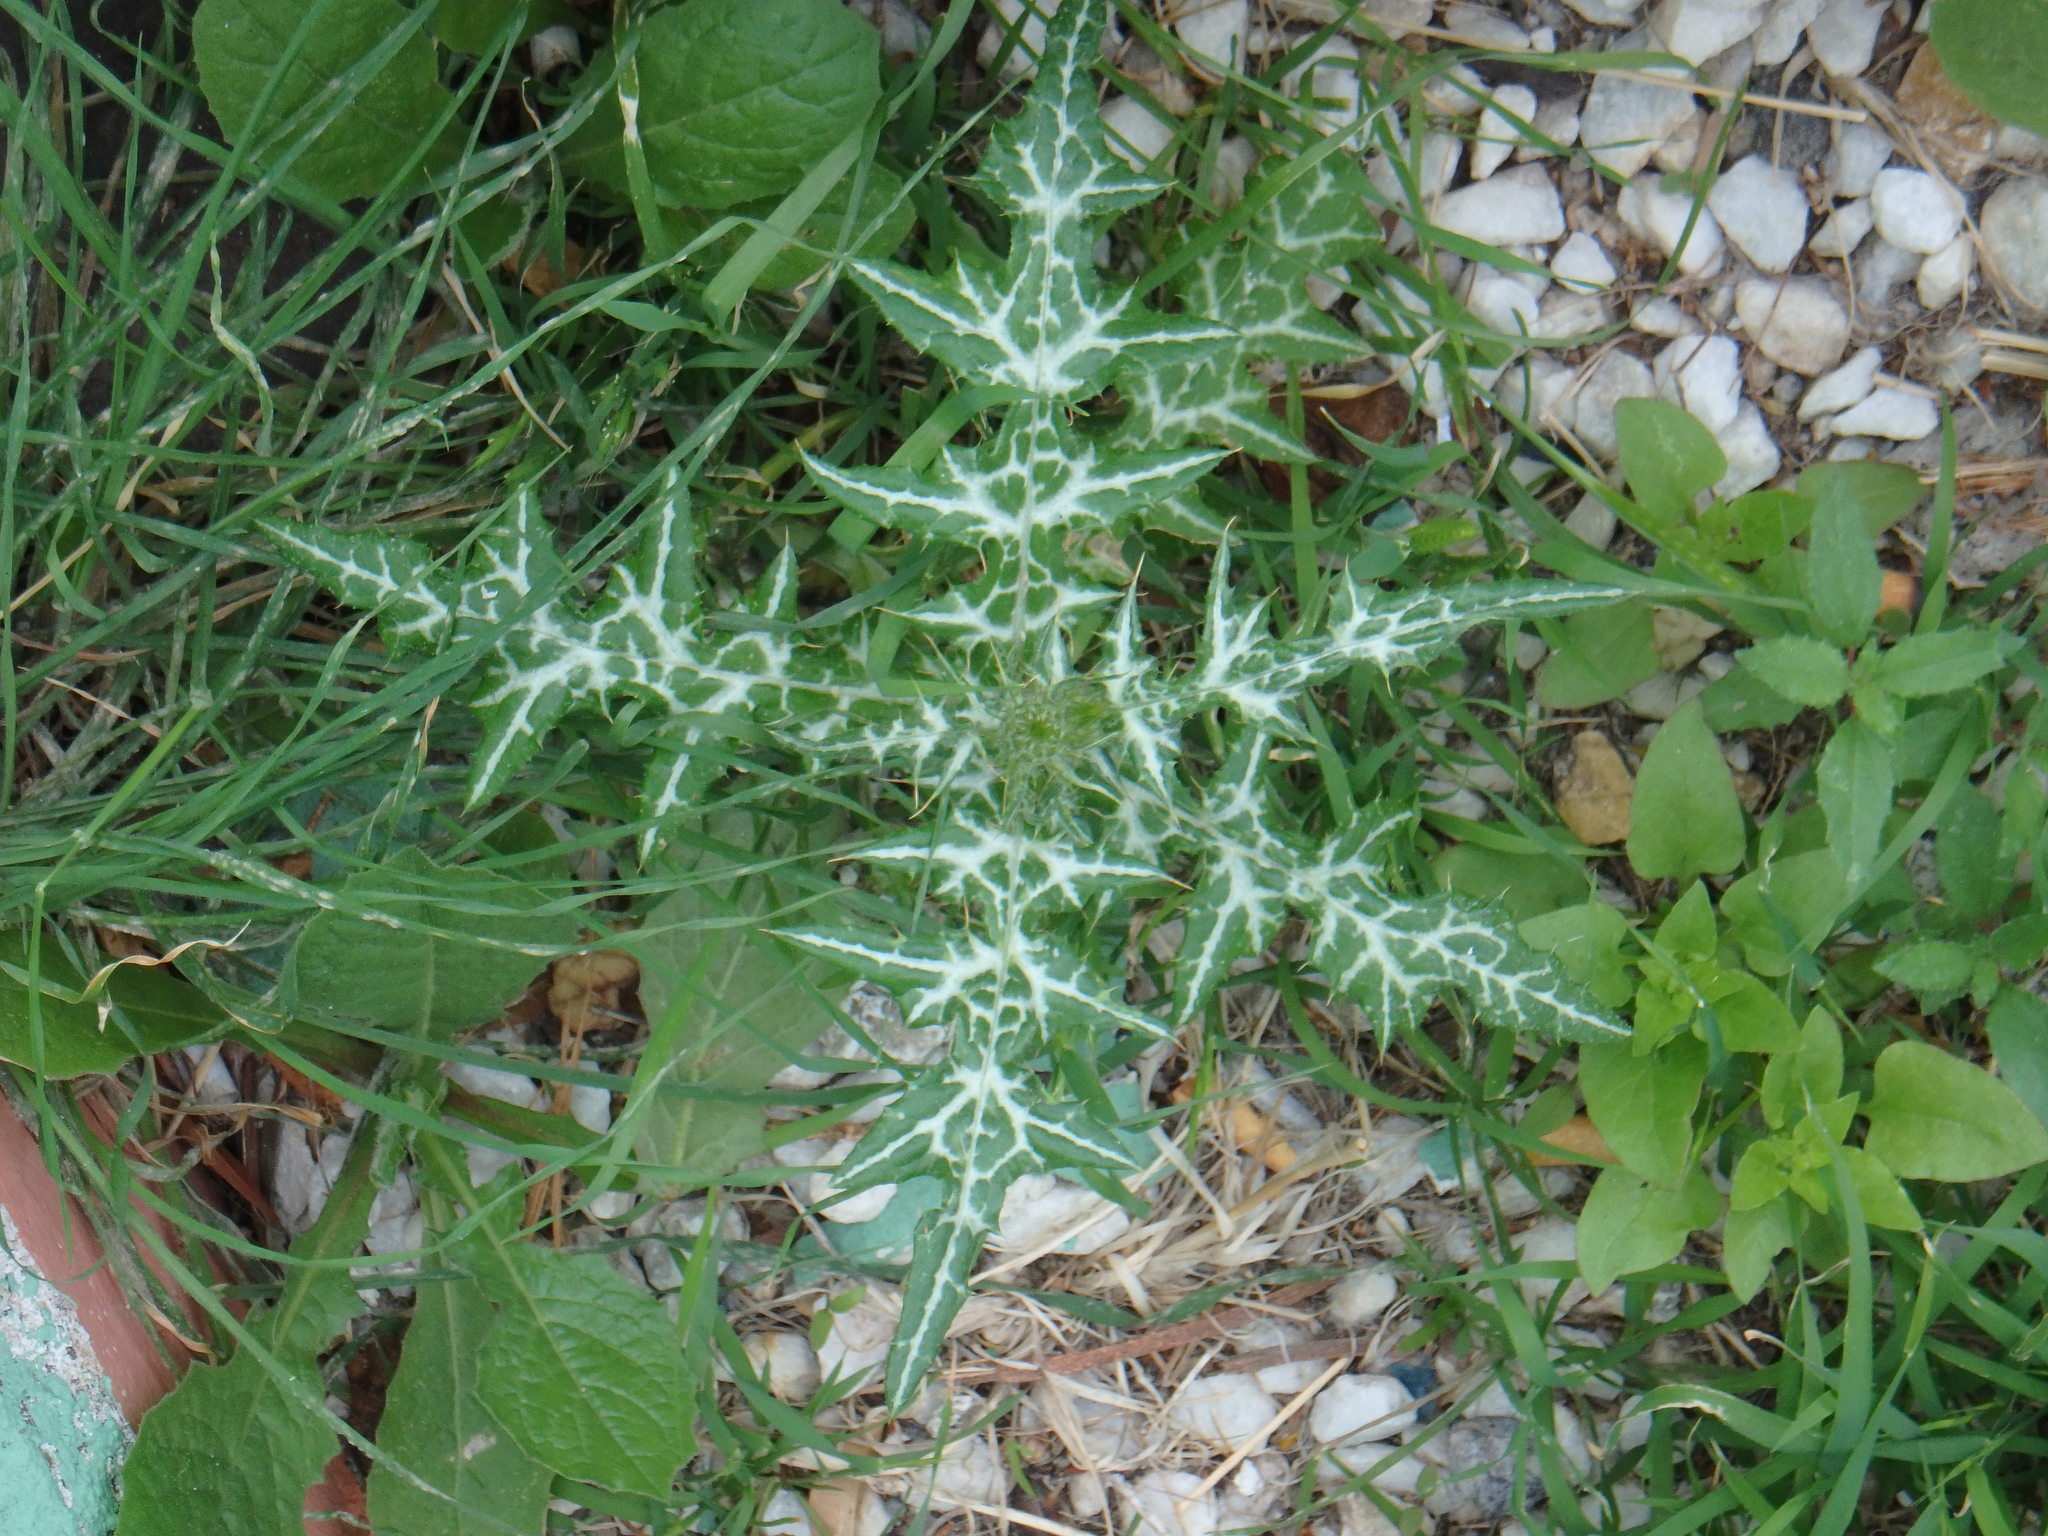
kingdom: Plantae
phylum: Tracheophyta
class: Magnoliopsida
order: Asterales
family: Asteraceae
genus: Galactites
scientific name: Galactites tomentosa
